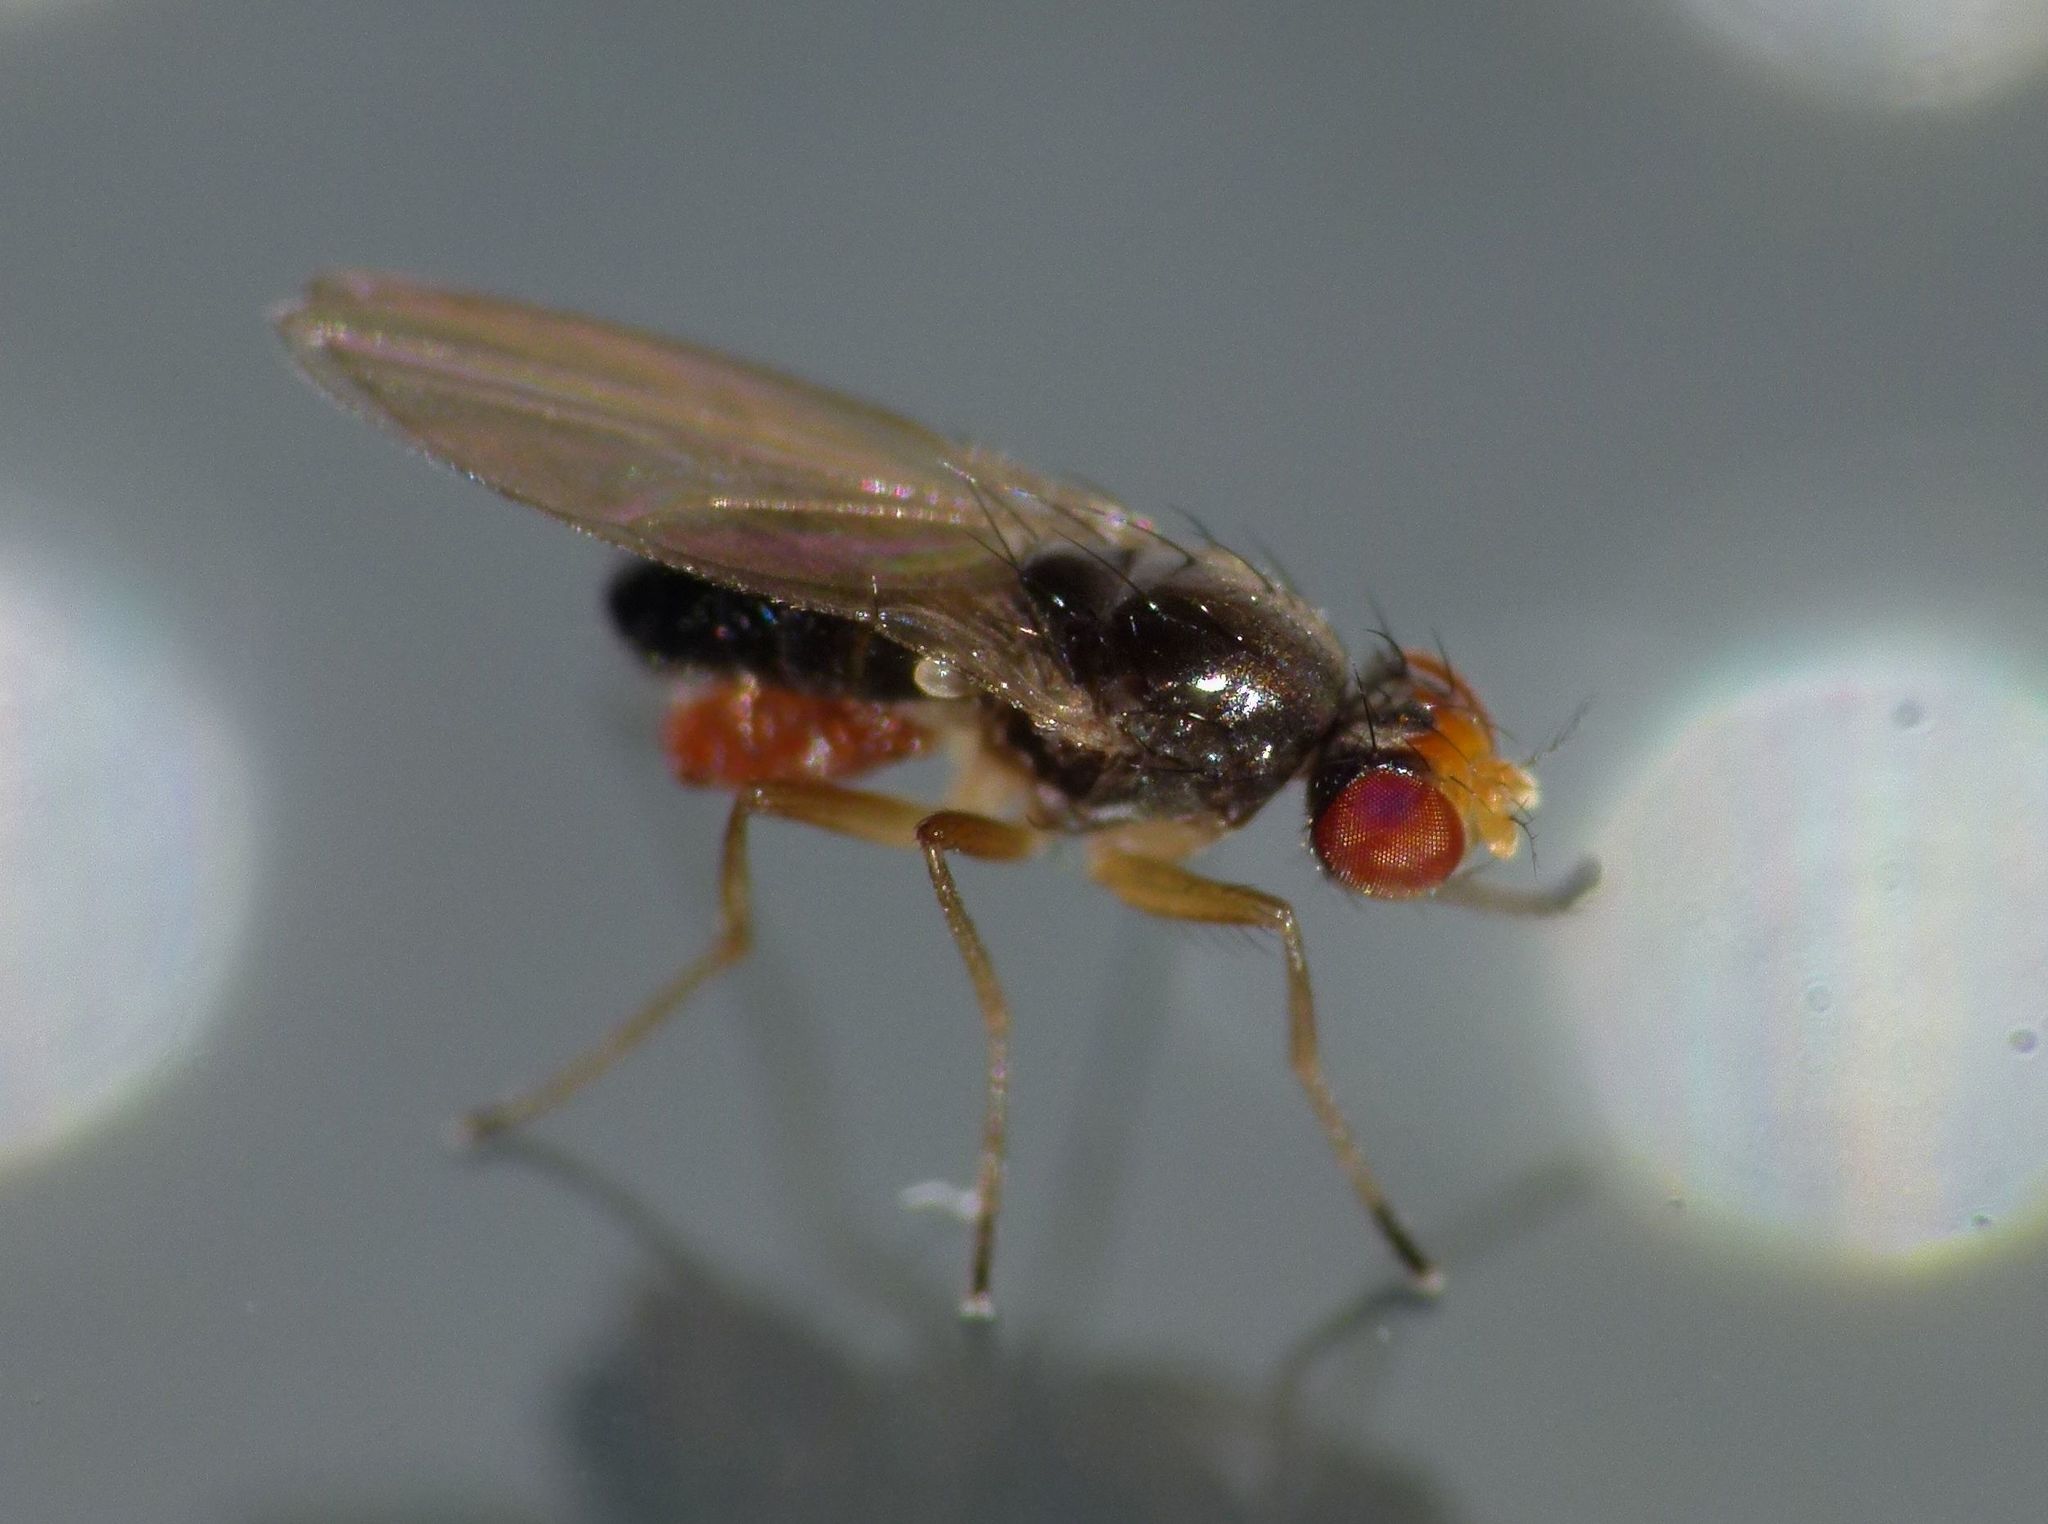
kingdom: Animalia
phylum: Arthropoda
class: Insecta
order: Diptera
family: Drosophilidae
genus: Scaptomyza
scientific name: Scaptomyza fuscitarsis
